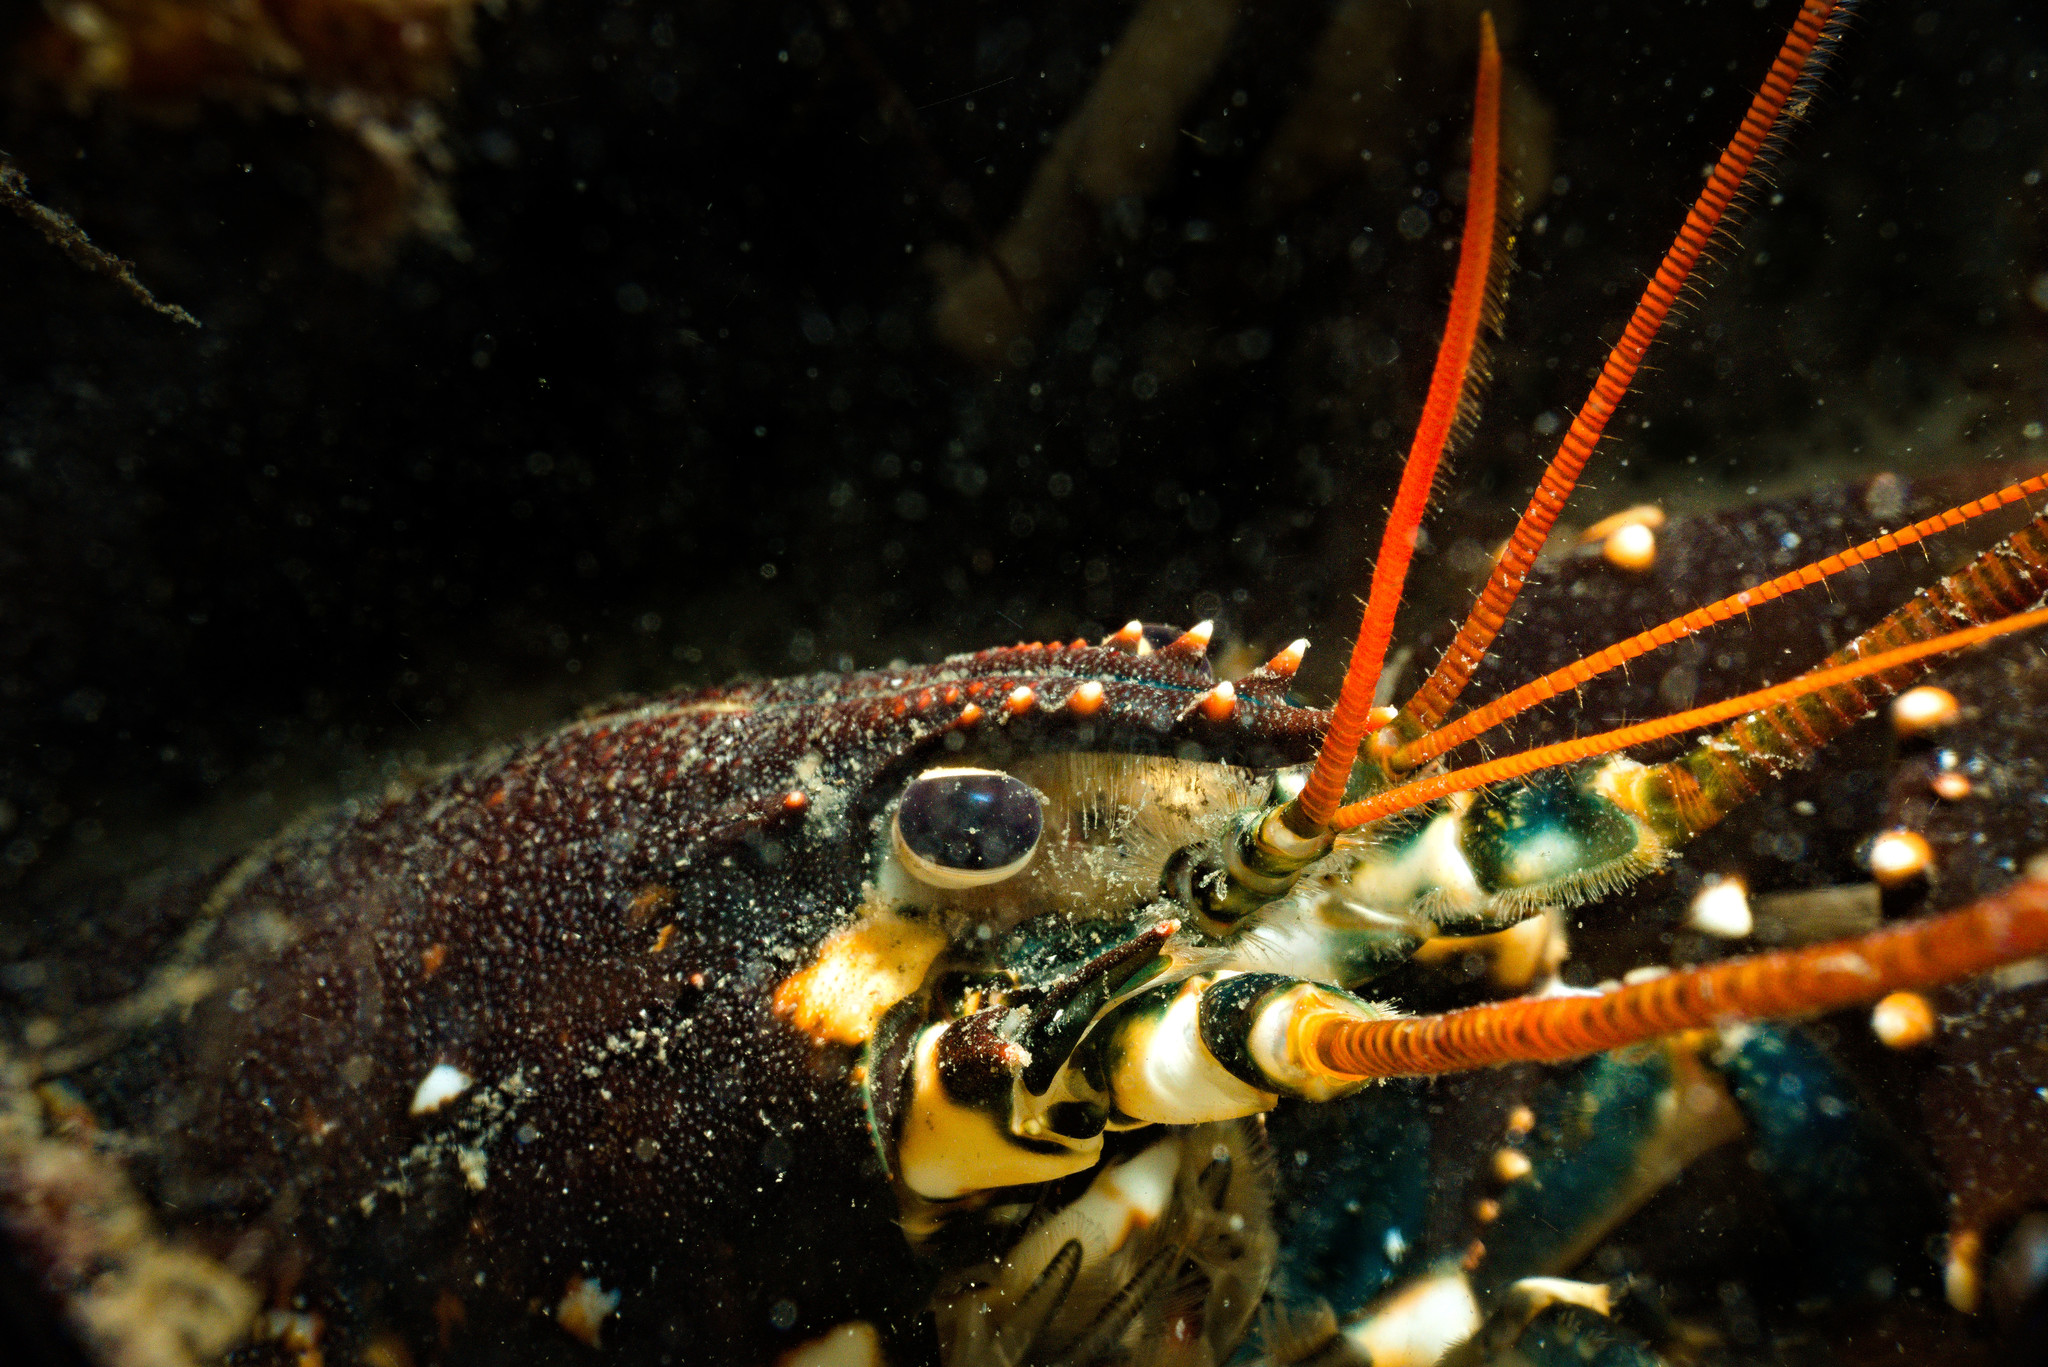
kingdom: Animalia
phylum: Arthropoda
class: Malacostraca
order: Decapoda
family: Nephropidae
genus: Homarus
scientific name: Homarus gammarus
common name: European lobster
